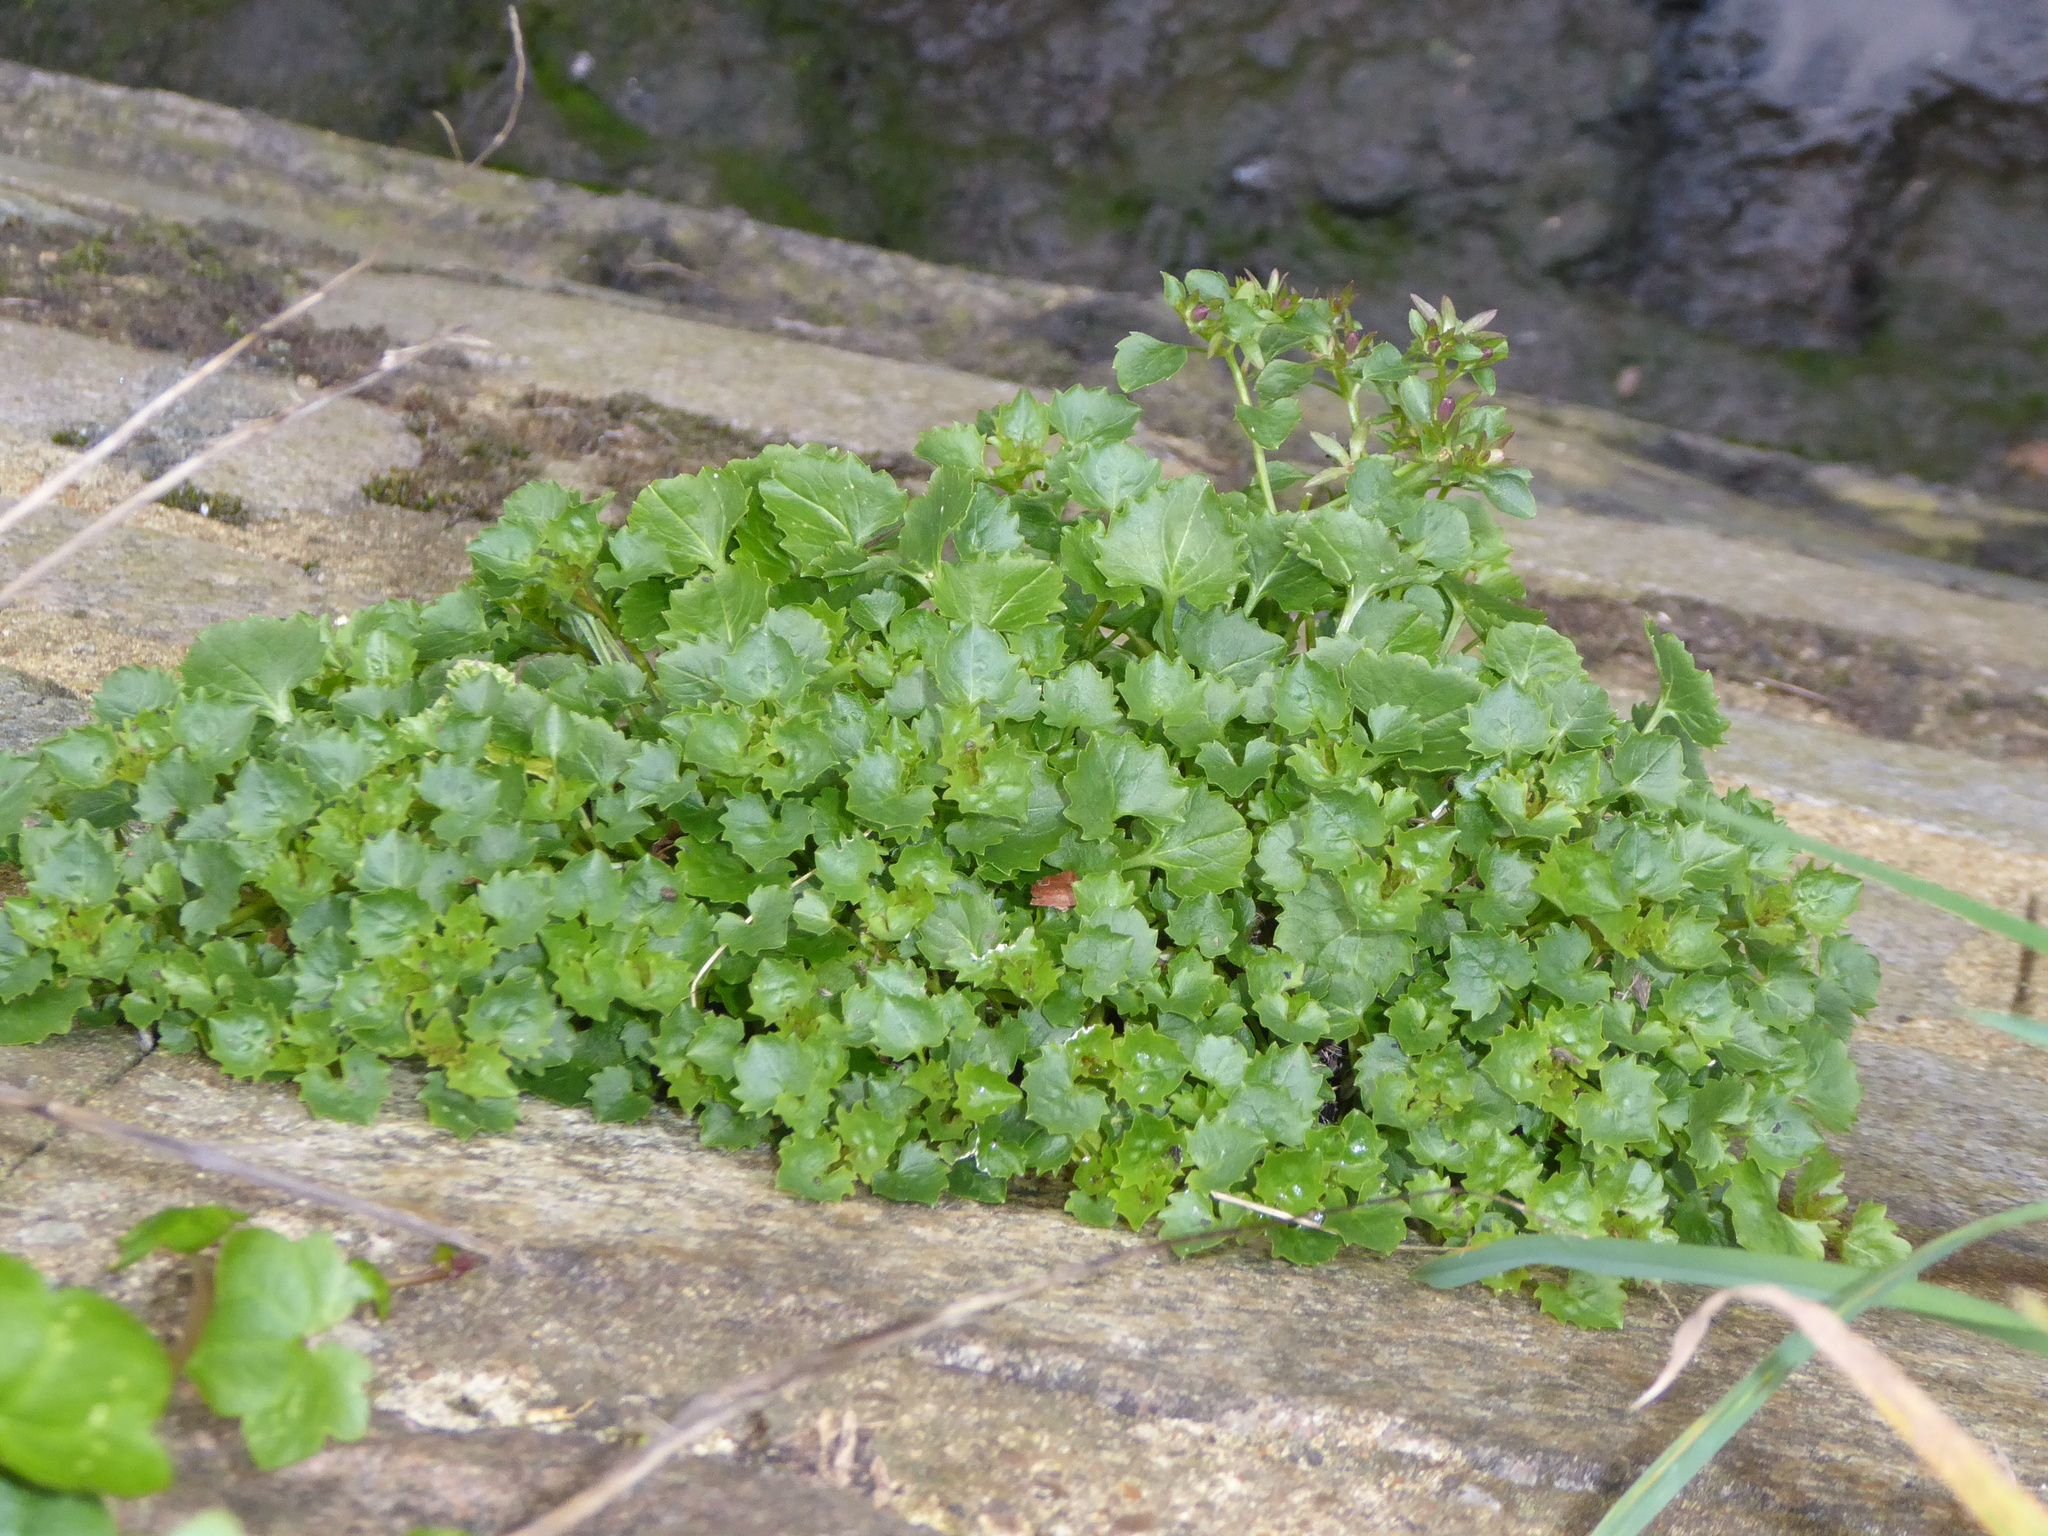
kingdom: Plantae
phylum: Tracheophyta
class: Magnoliopsida
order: Asterales
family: Campanulaceae
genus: Campanula
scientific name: Campanula portenschlagiana
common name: Adria bellflower
